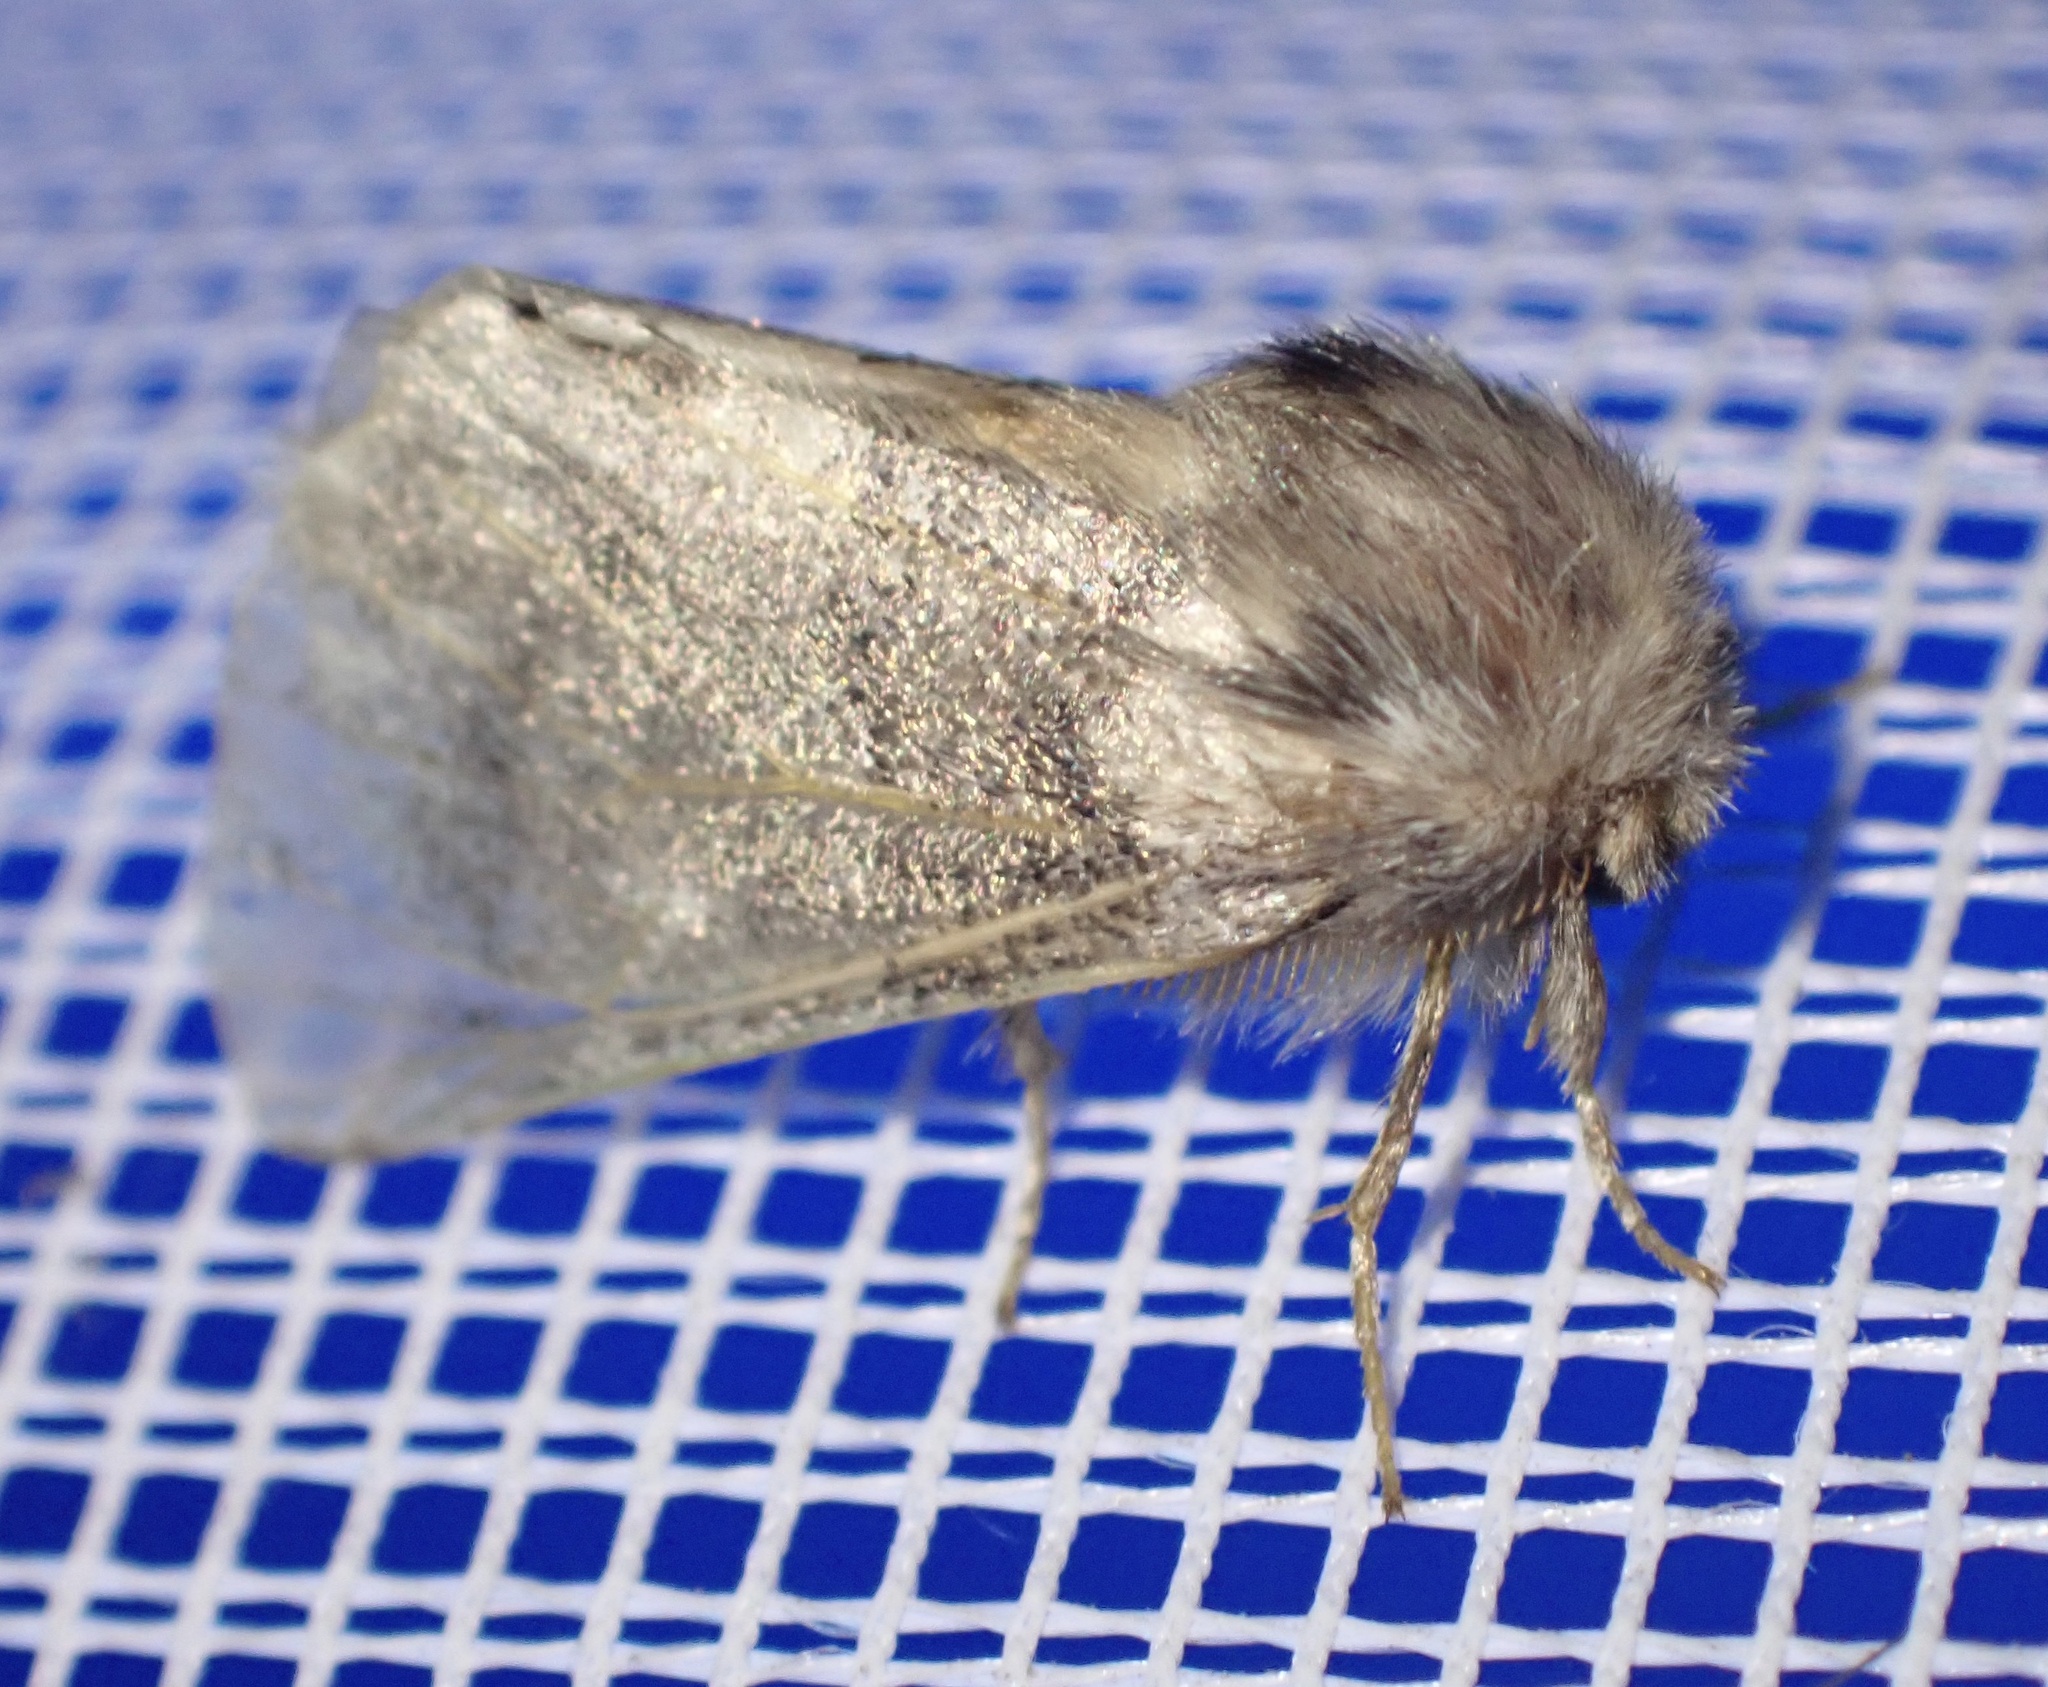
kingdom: Animalia
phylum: Arthropoda
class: Insecta
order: Lepidoptera
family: Notodontidae
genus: Thaumetopoea
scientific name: Thaumetopoea processionea
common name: Oak processionea
